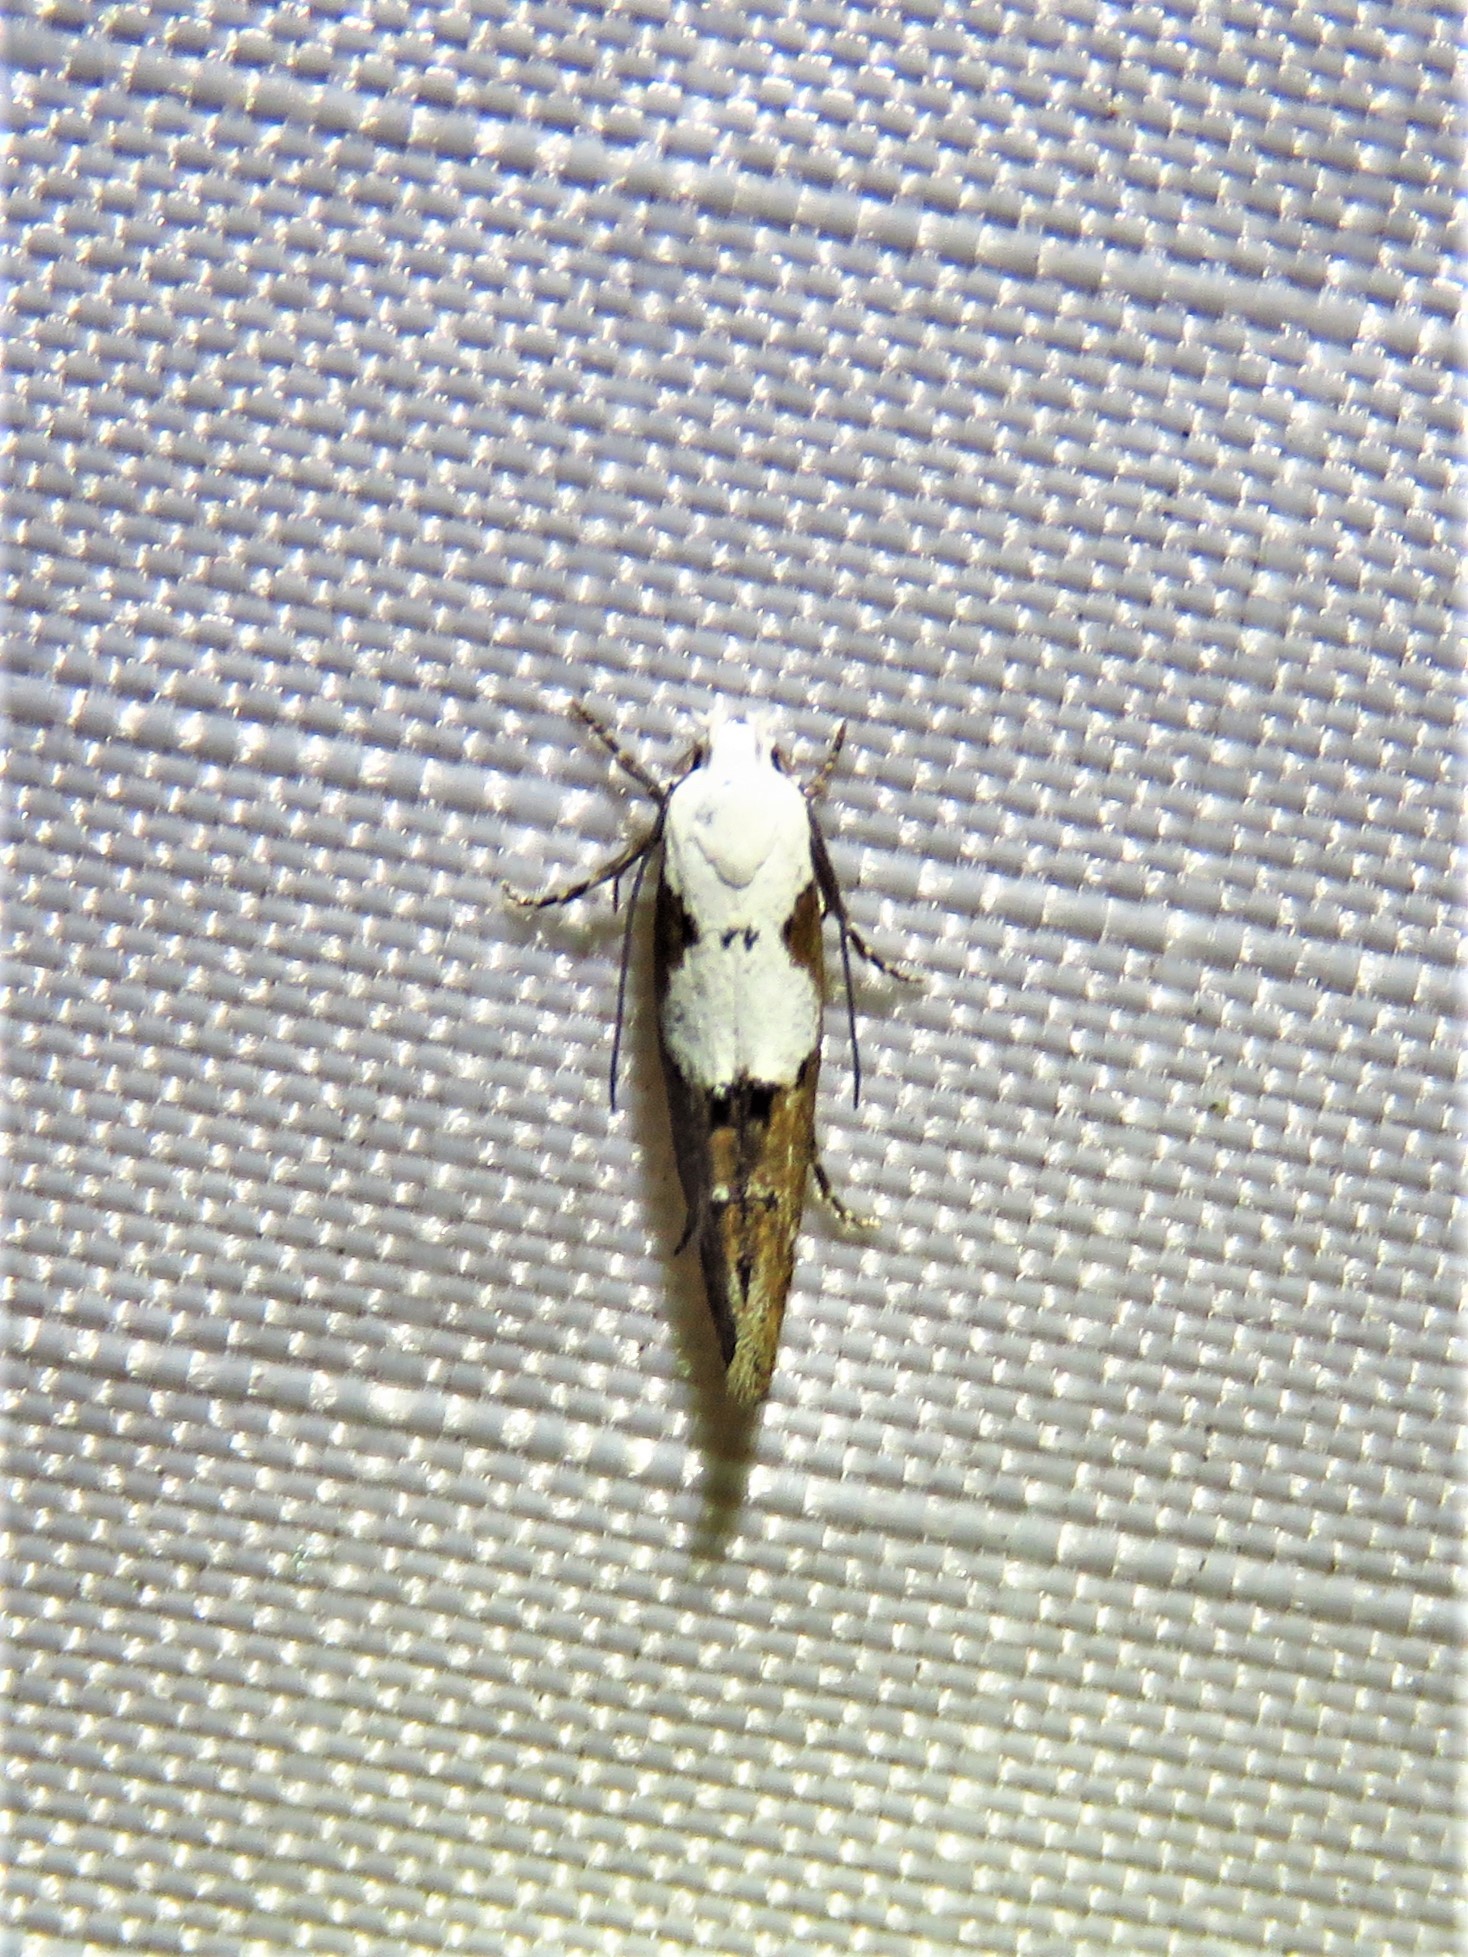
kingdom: Animalia
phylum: Arthropoda
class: Insecta
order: Lepidoptera
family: Momphidae
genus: Mompha
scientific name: Mompha circumscriptella
